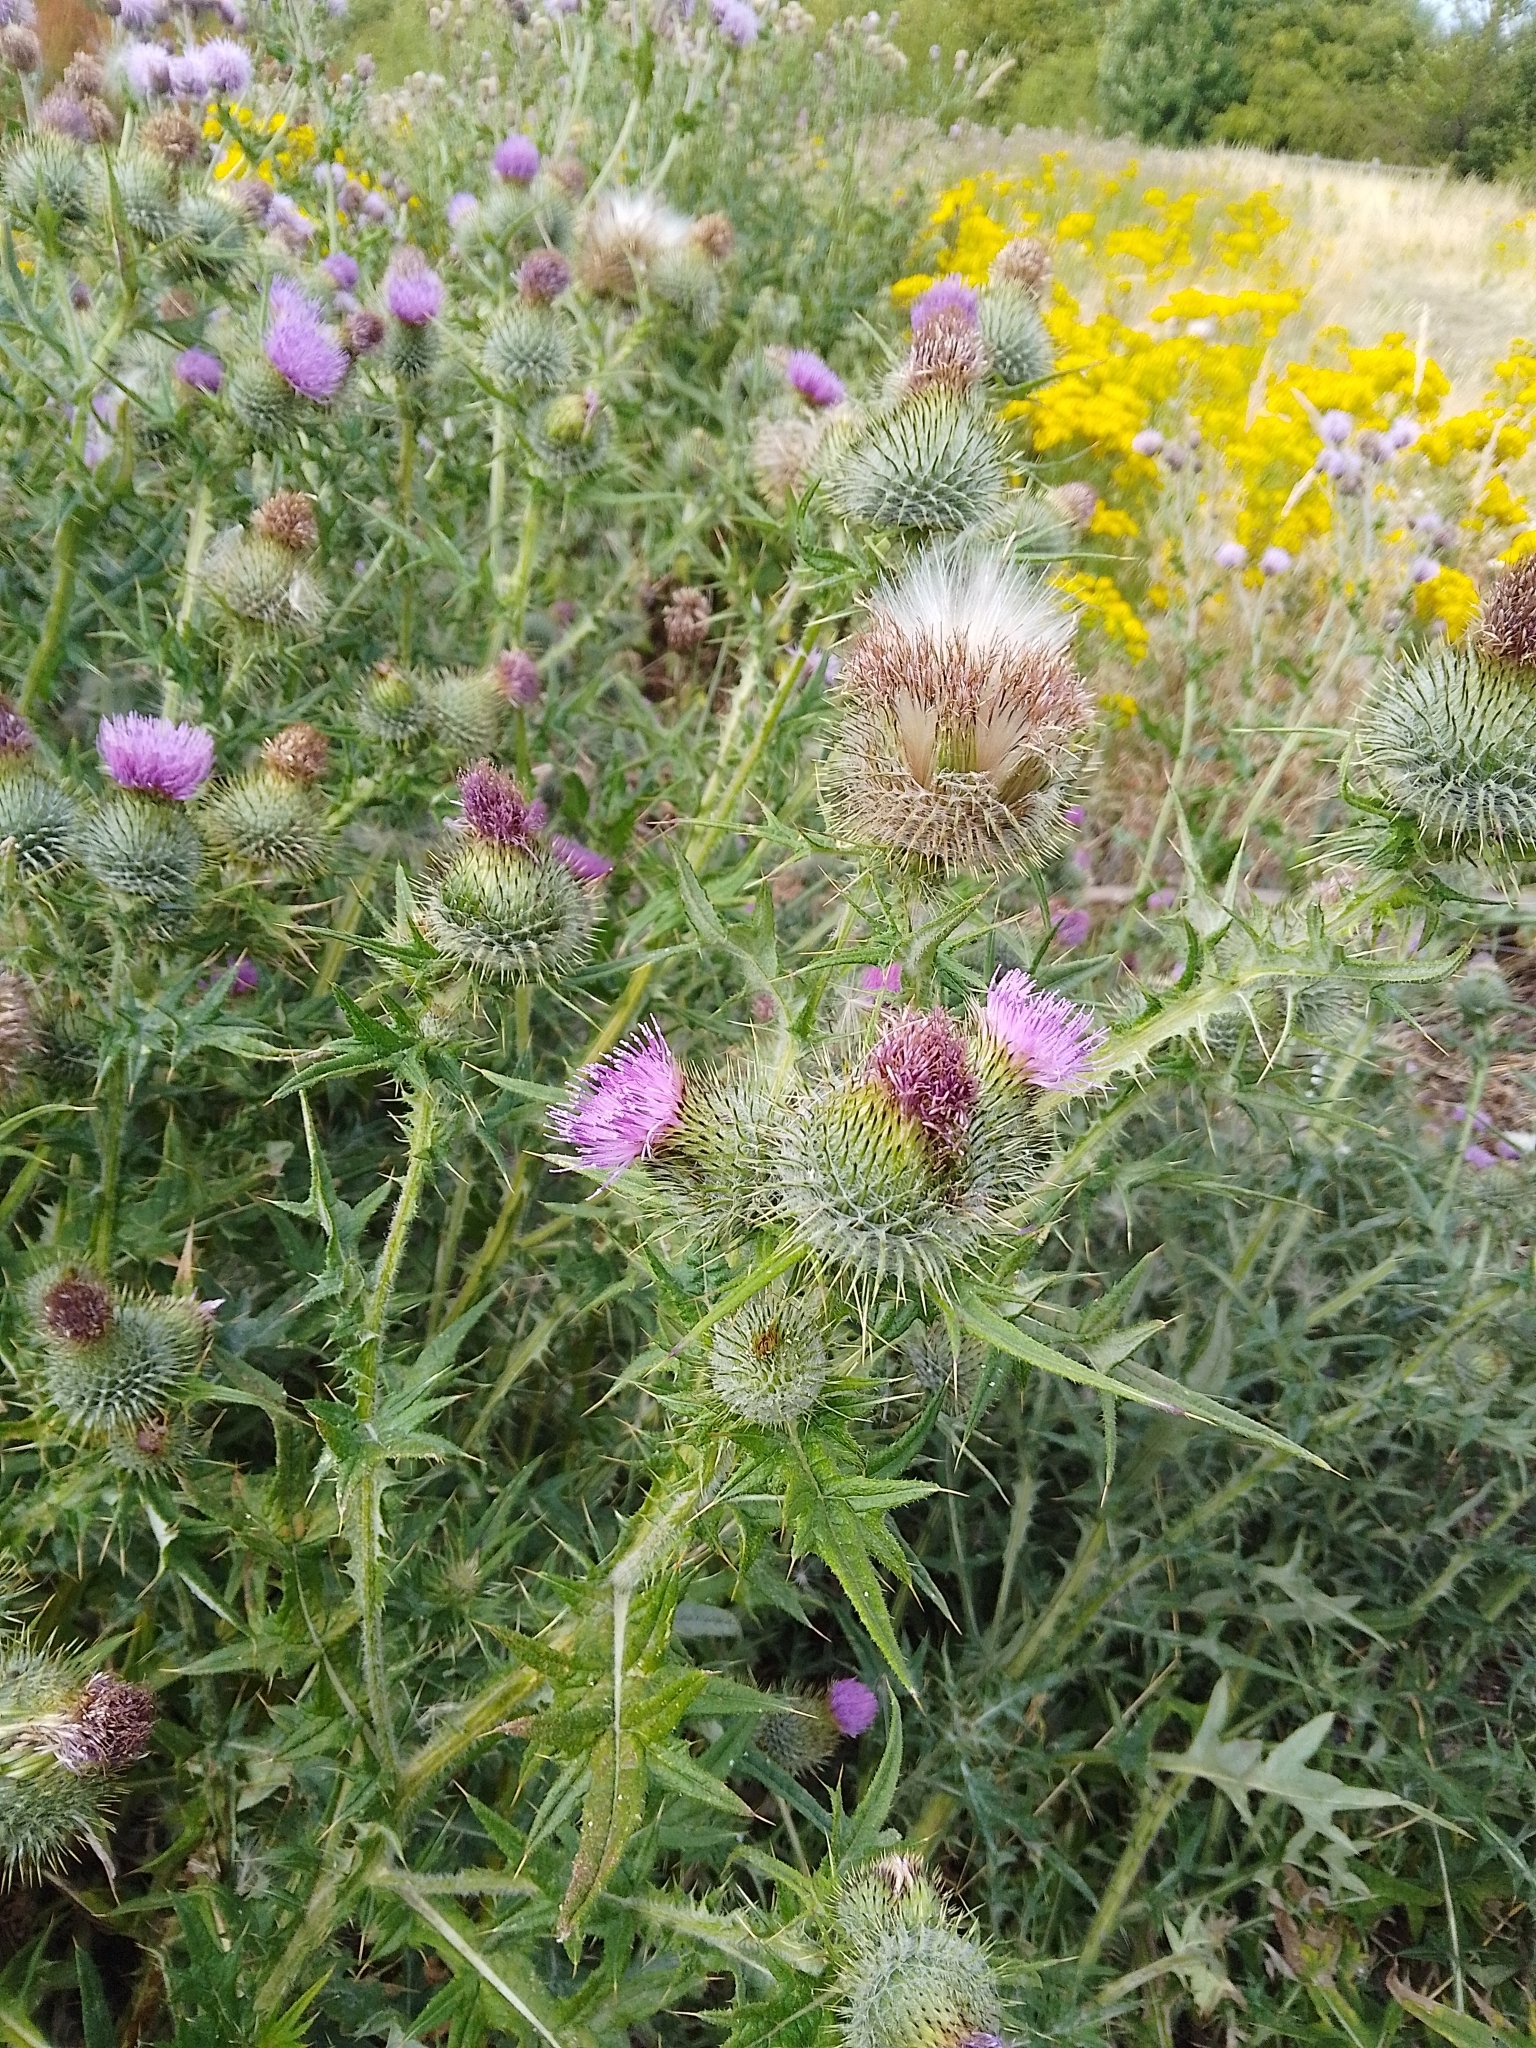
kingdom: Plantae
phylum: Tracheophyta
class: Magnoliopsida
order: Asterales
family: Asteraceae
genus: Cirsium
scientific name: Cirsium vulgare
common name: Bull thistle
